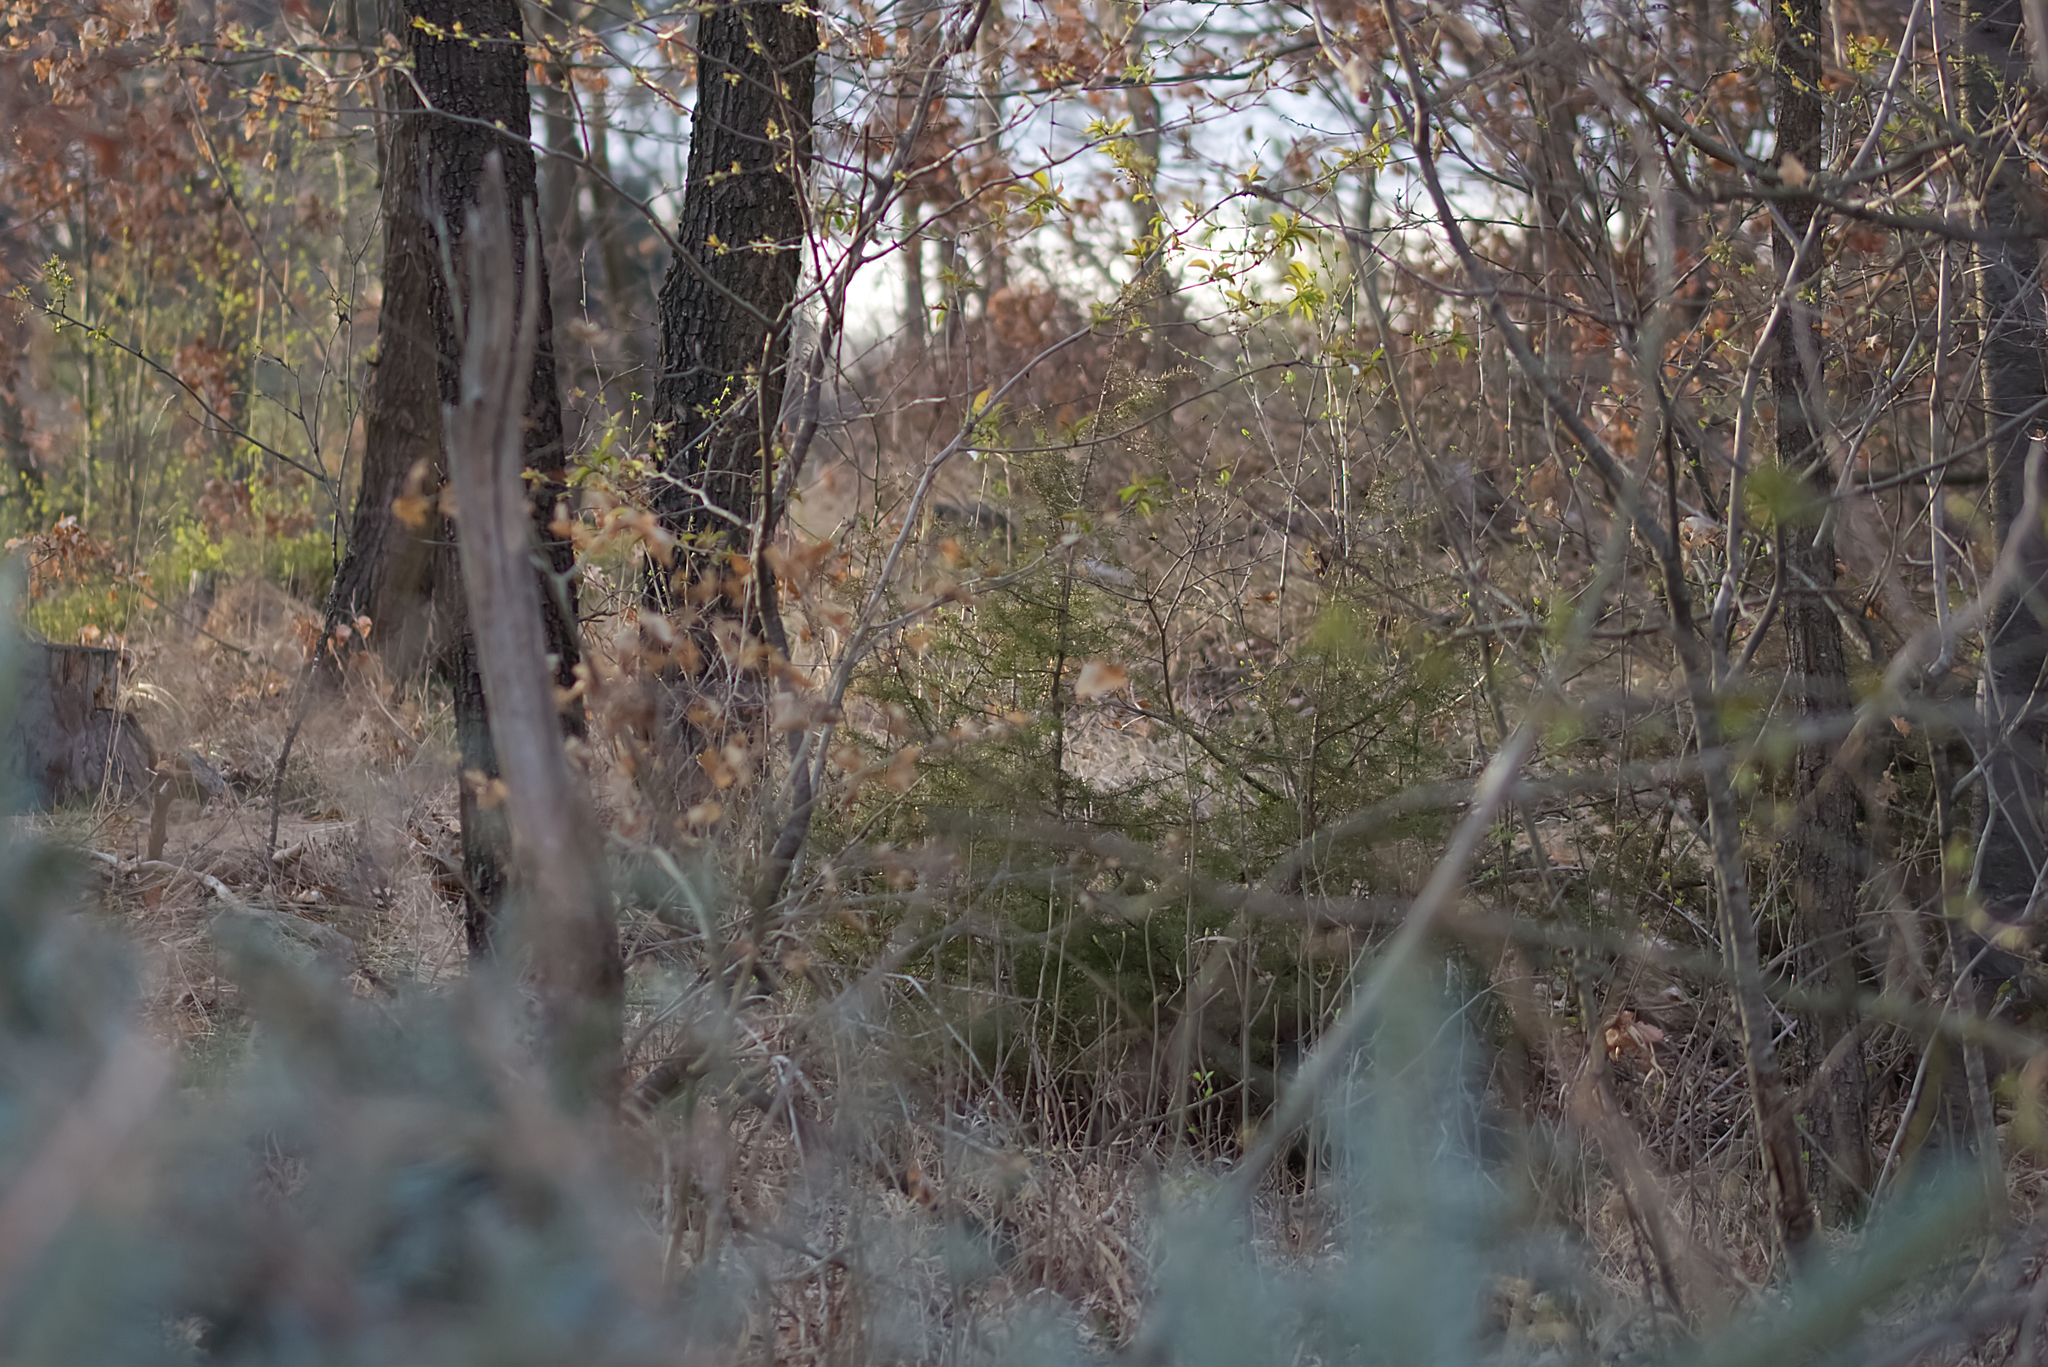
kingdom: Plantae
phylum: Tracheophyta
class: Pinopsida
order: Pinales
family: Cupressaceae
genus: Juniperus
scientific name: Juniperus communis
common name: Common juniper
